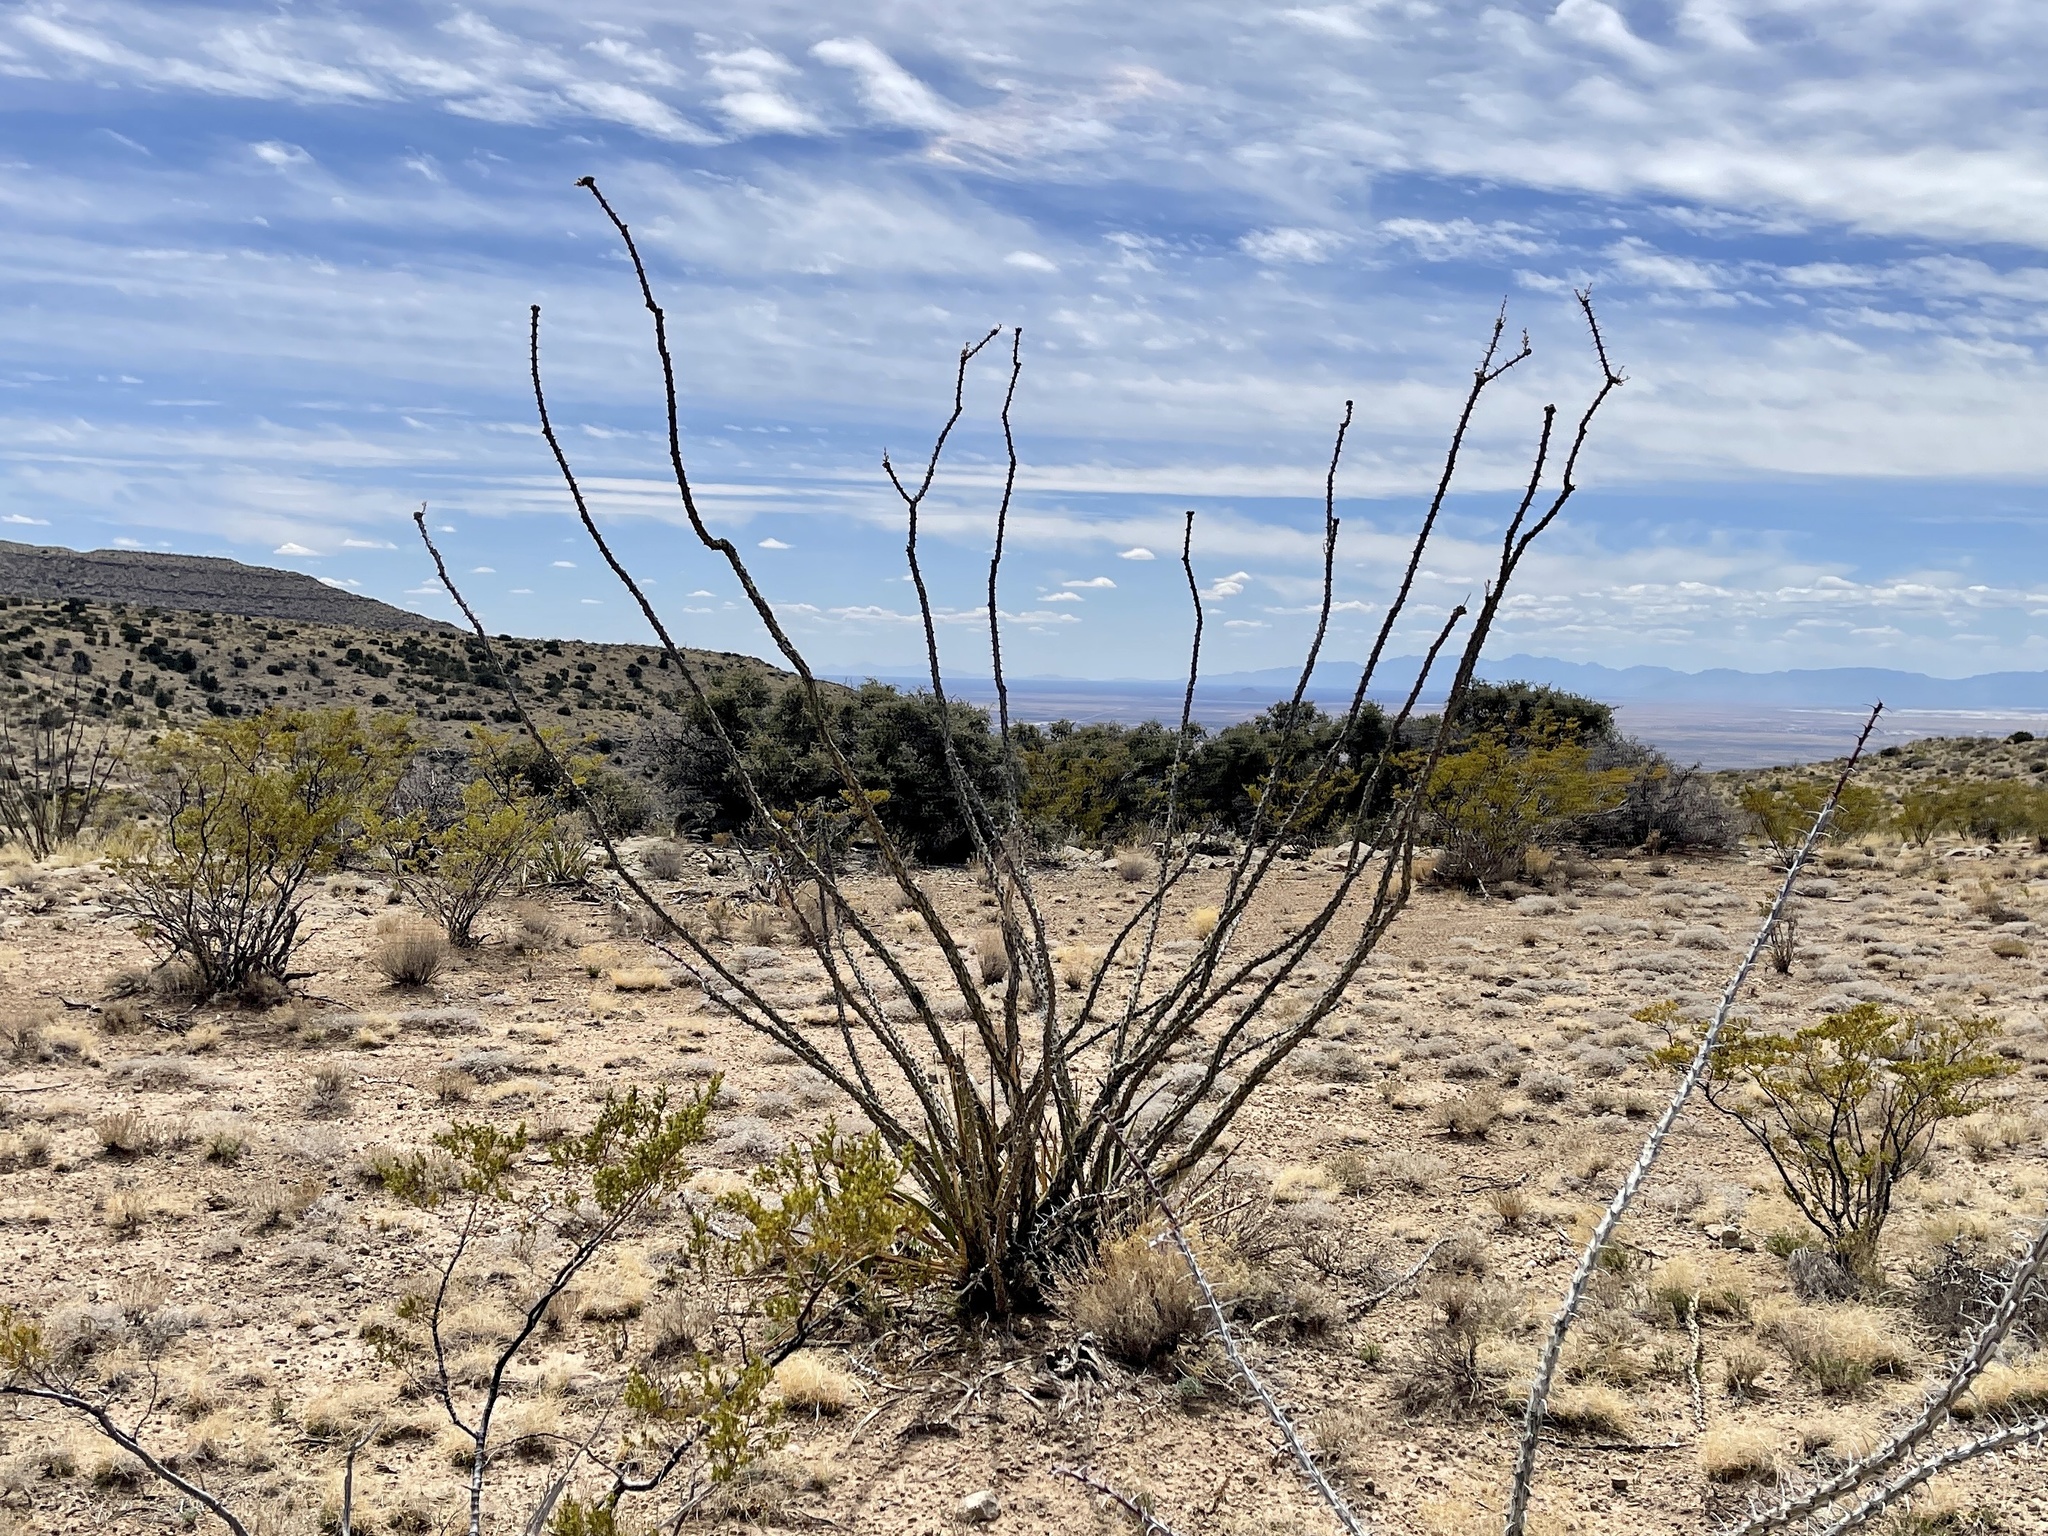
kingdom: Plantae
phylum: Tracheophyta
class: Magnoliopsida
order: Ericales
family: Fouquieriaceae
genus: Fouquieria
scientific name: Fouquieria splendens
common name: Vine-cactus
